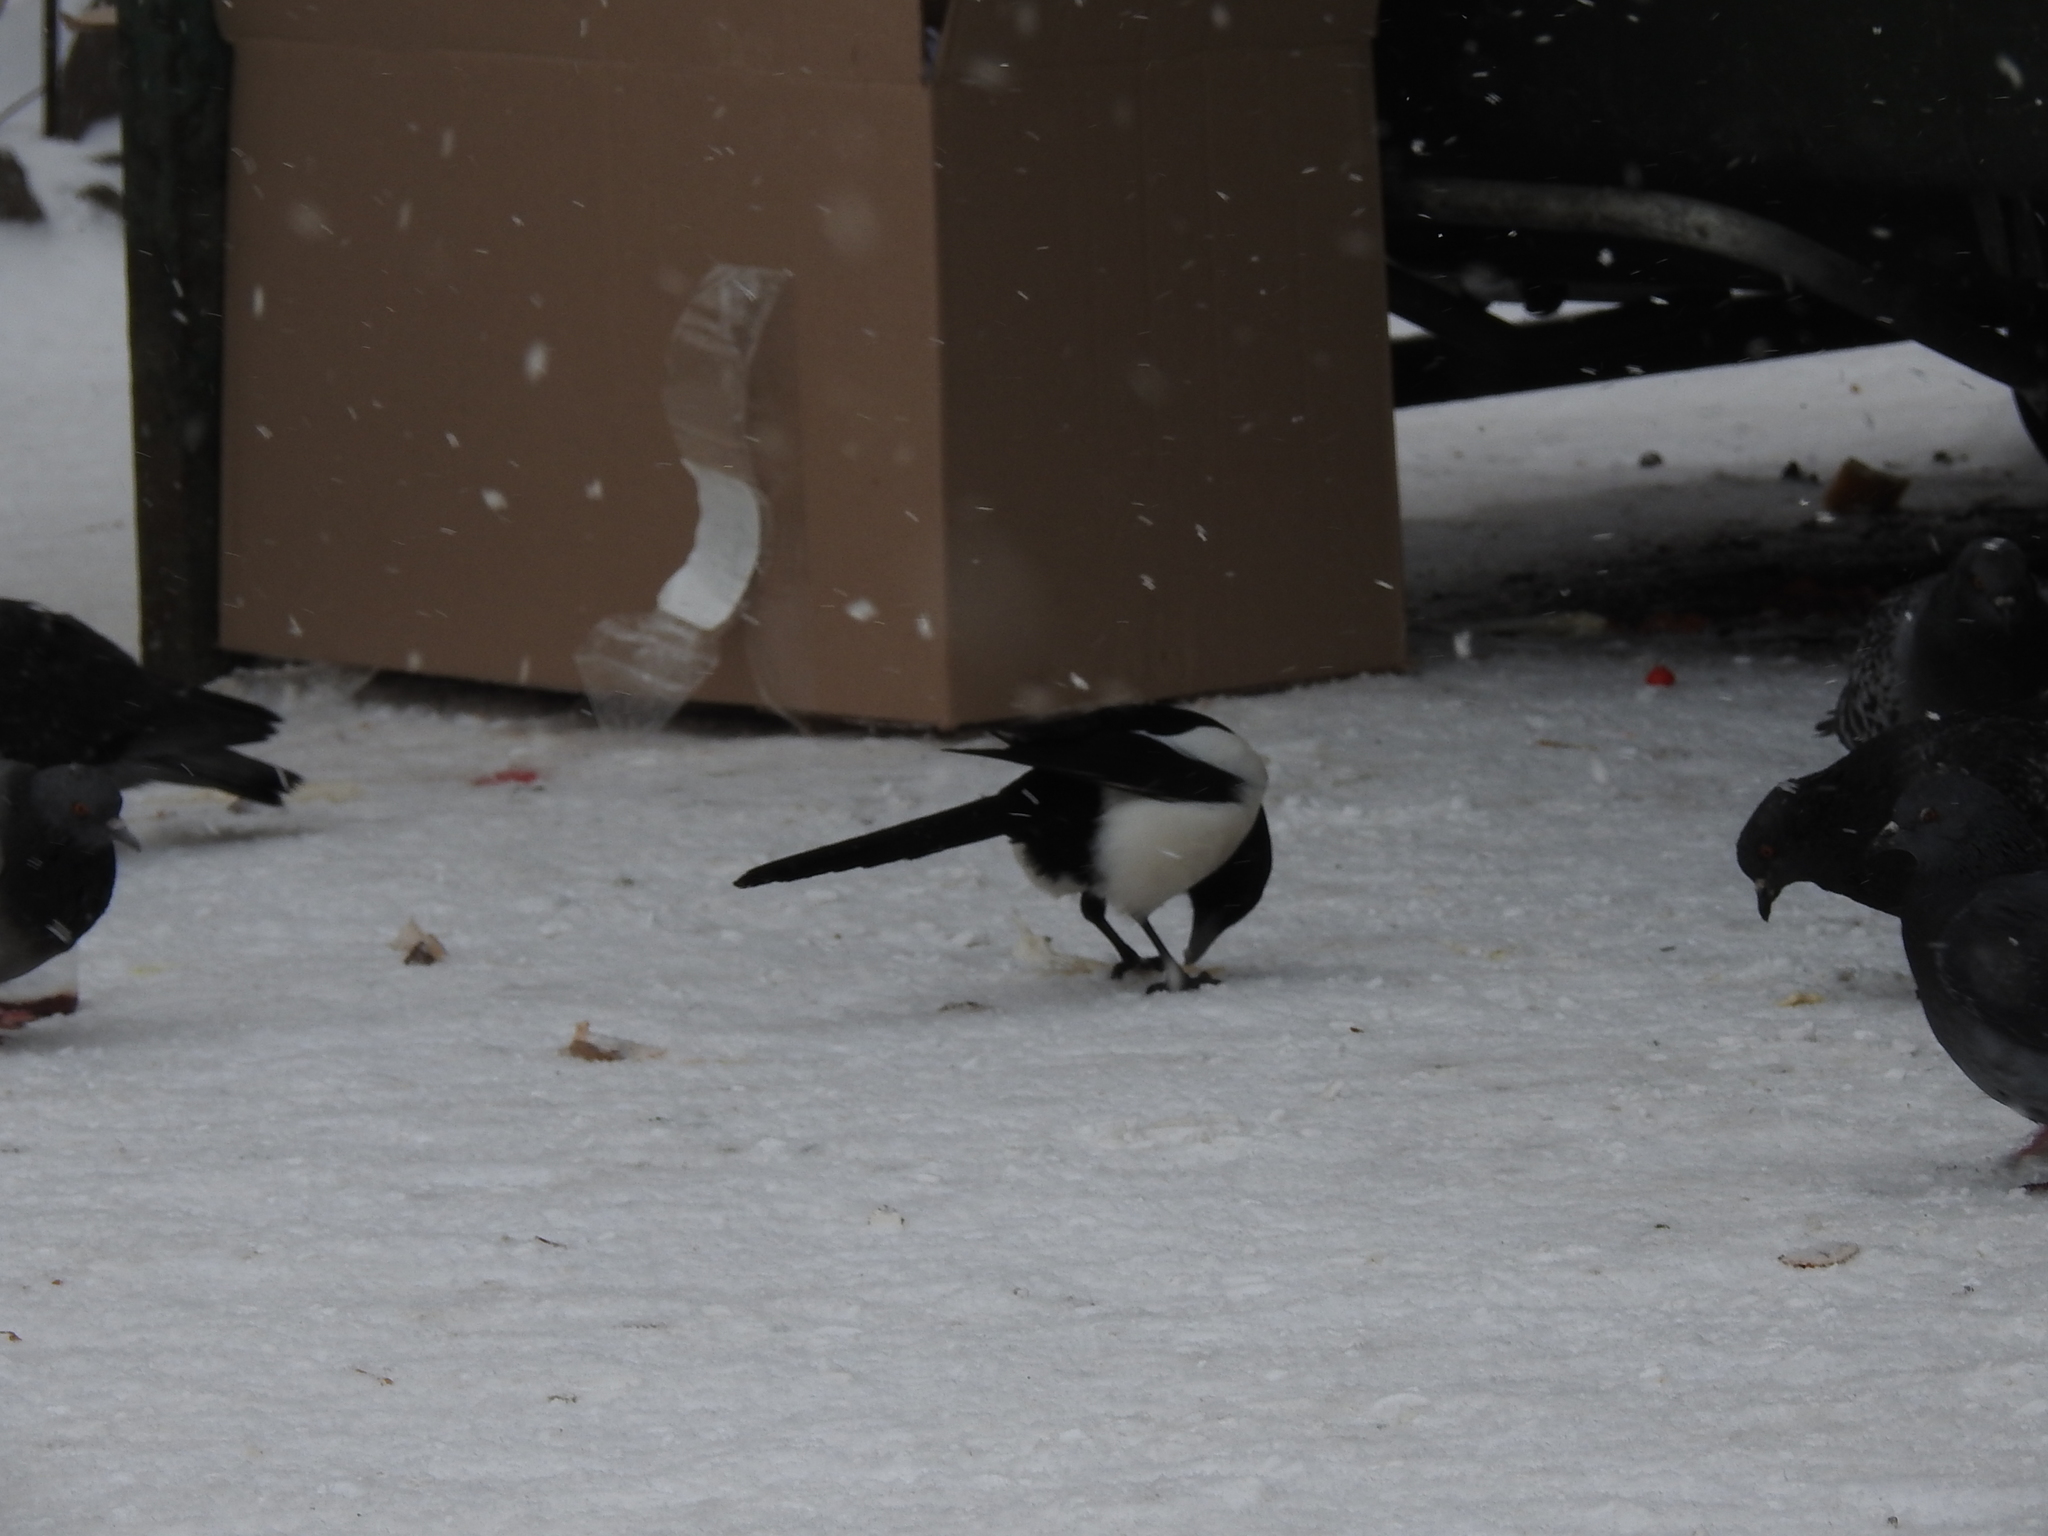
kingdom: Animalia
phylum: Chordata
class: Aves
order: Passeriformes
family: Corvidae
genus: Pica
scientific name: Pica pica
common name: Eurasian magpie
